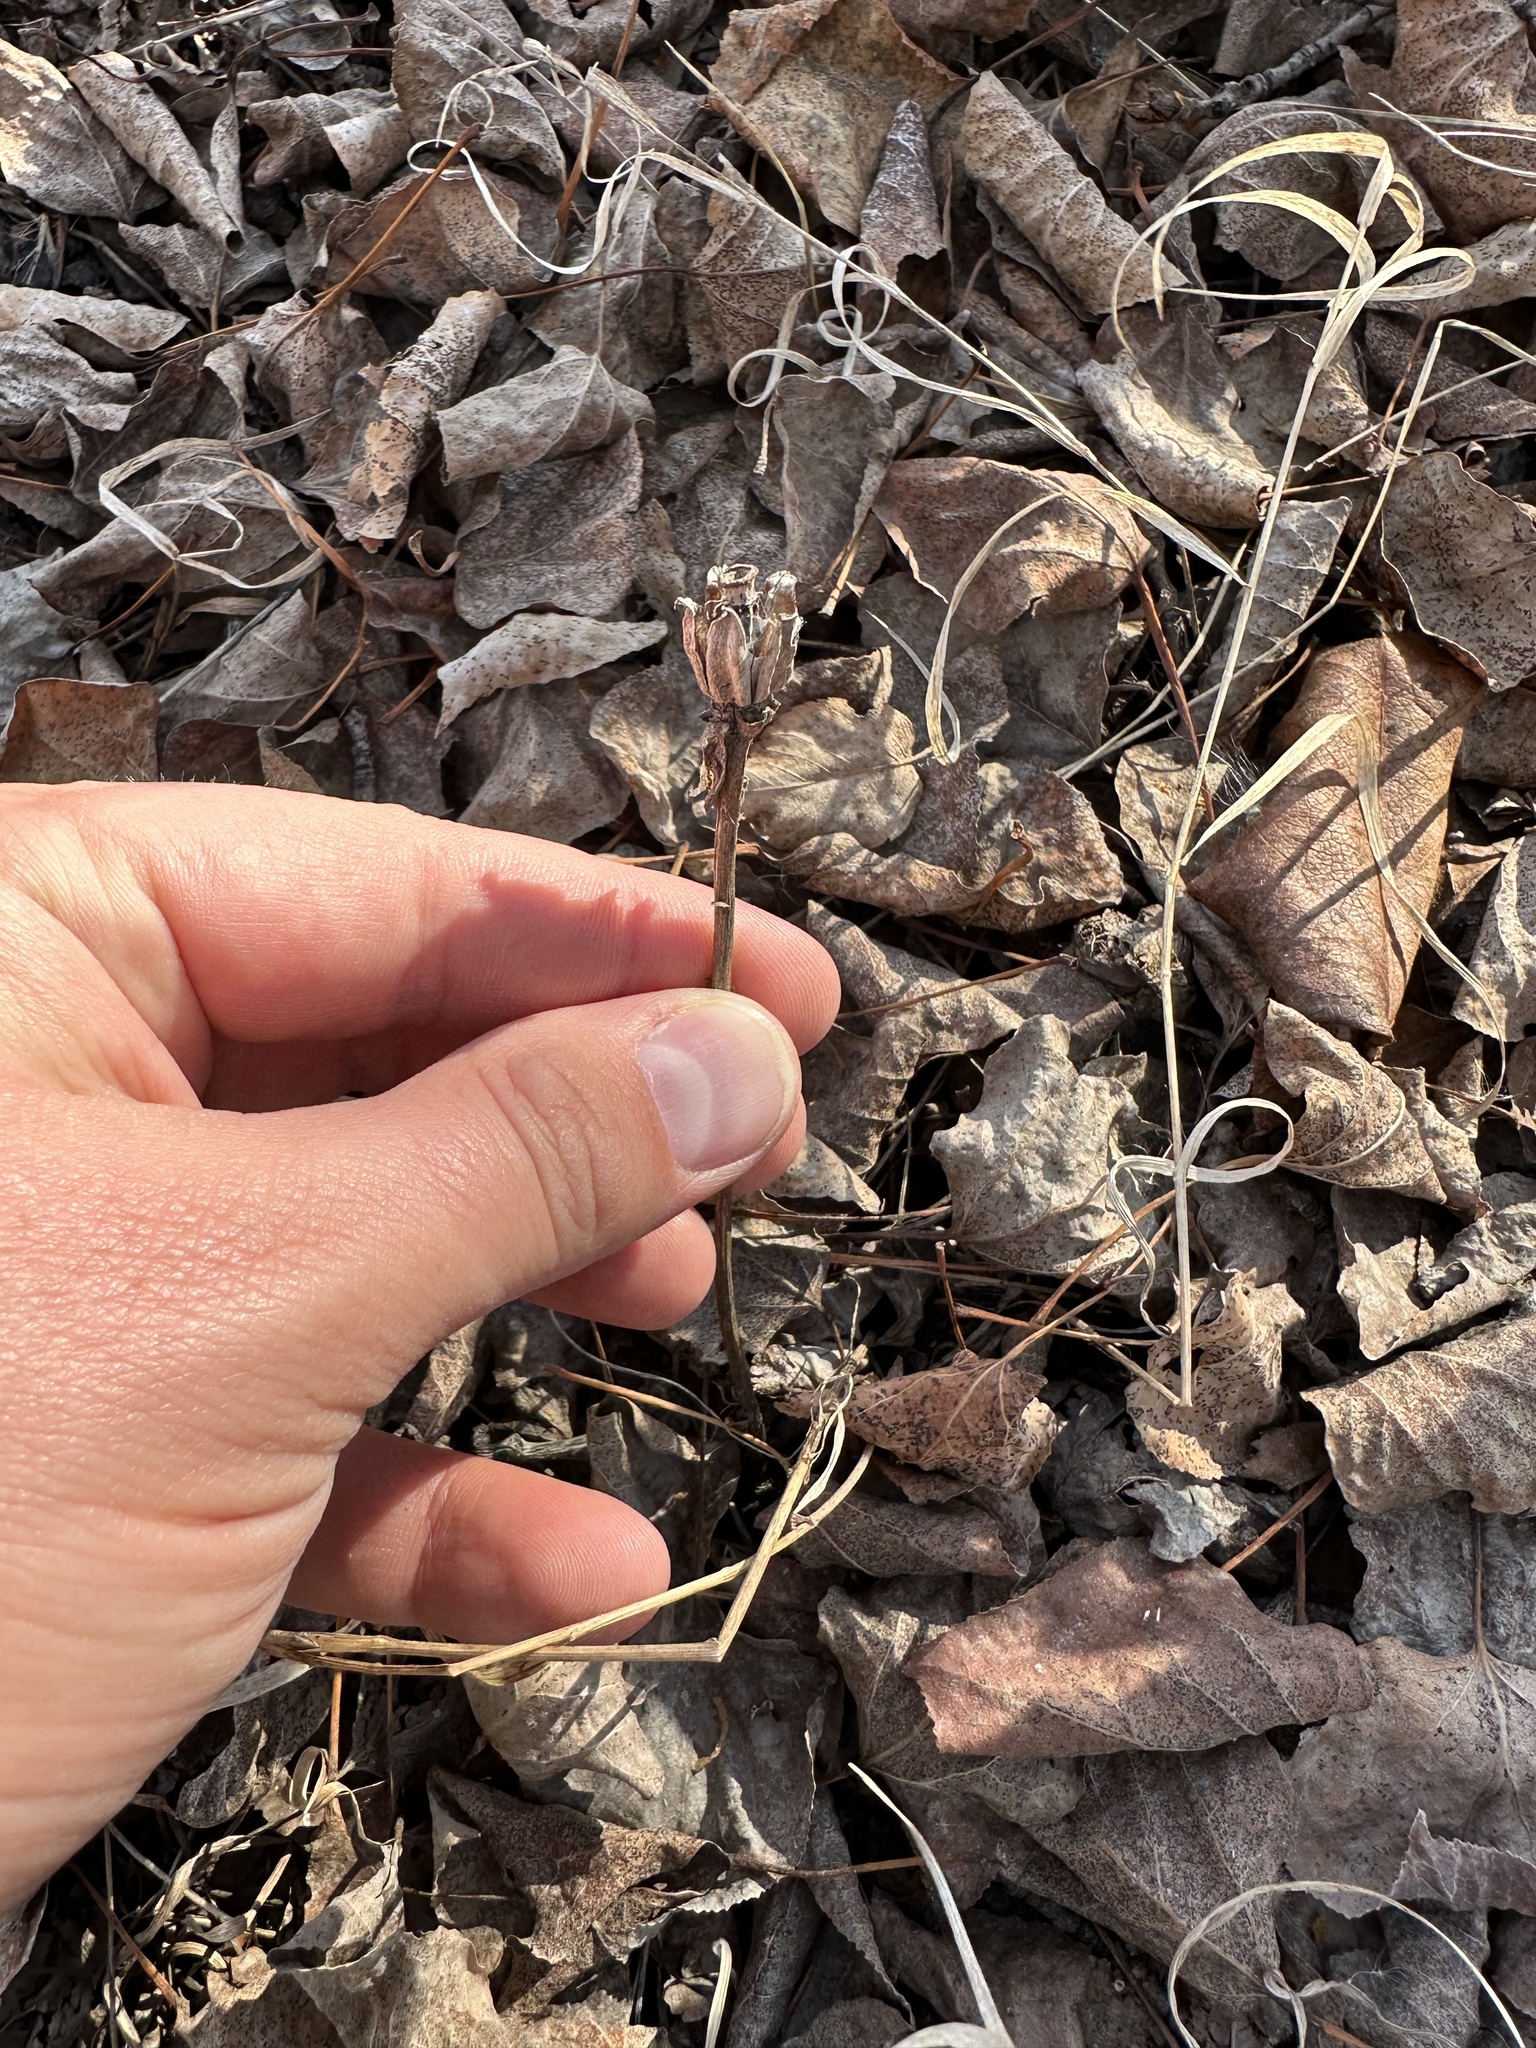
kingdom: Plantae
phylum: Tracheophyta
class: Magnoliopsida
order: Ericales
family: Ericaceae
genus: Monotropa
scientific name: Monotropa uniflora
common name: Convulsion root
